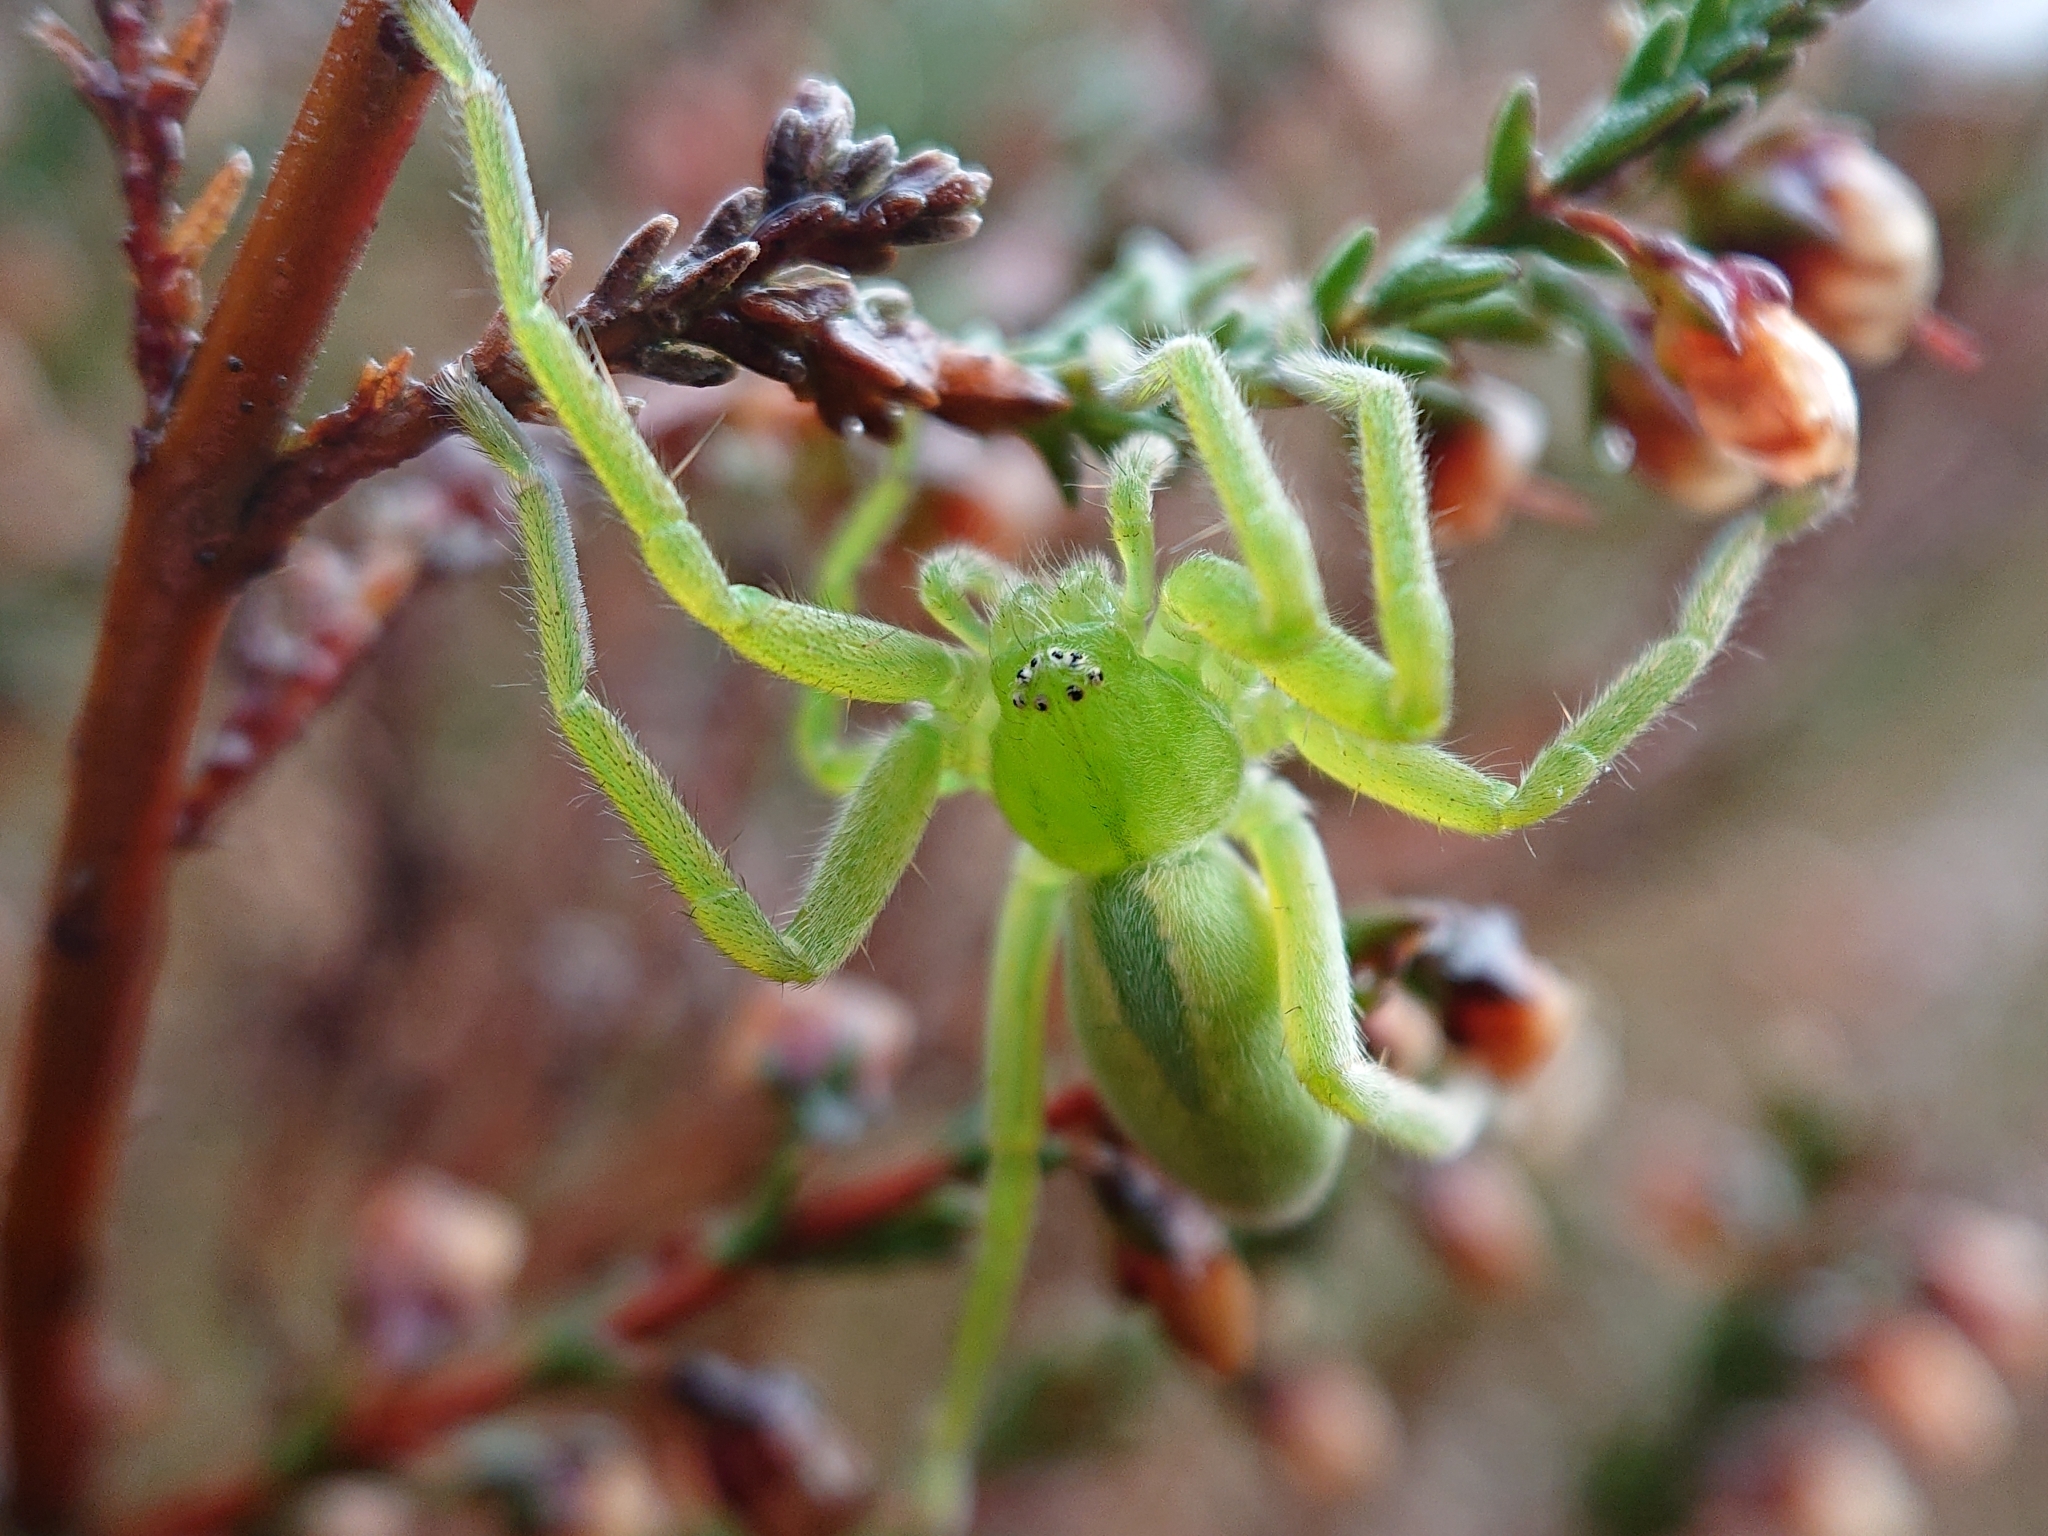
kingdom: Animalia
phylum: Arthropoda
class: Arachnida
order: Araneae
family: Sparassidae
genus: Micrommata
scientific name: Micrommata virescens
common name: Green spider
